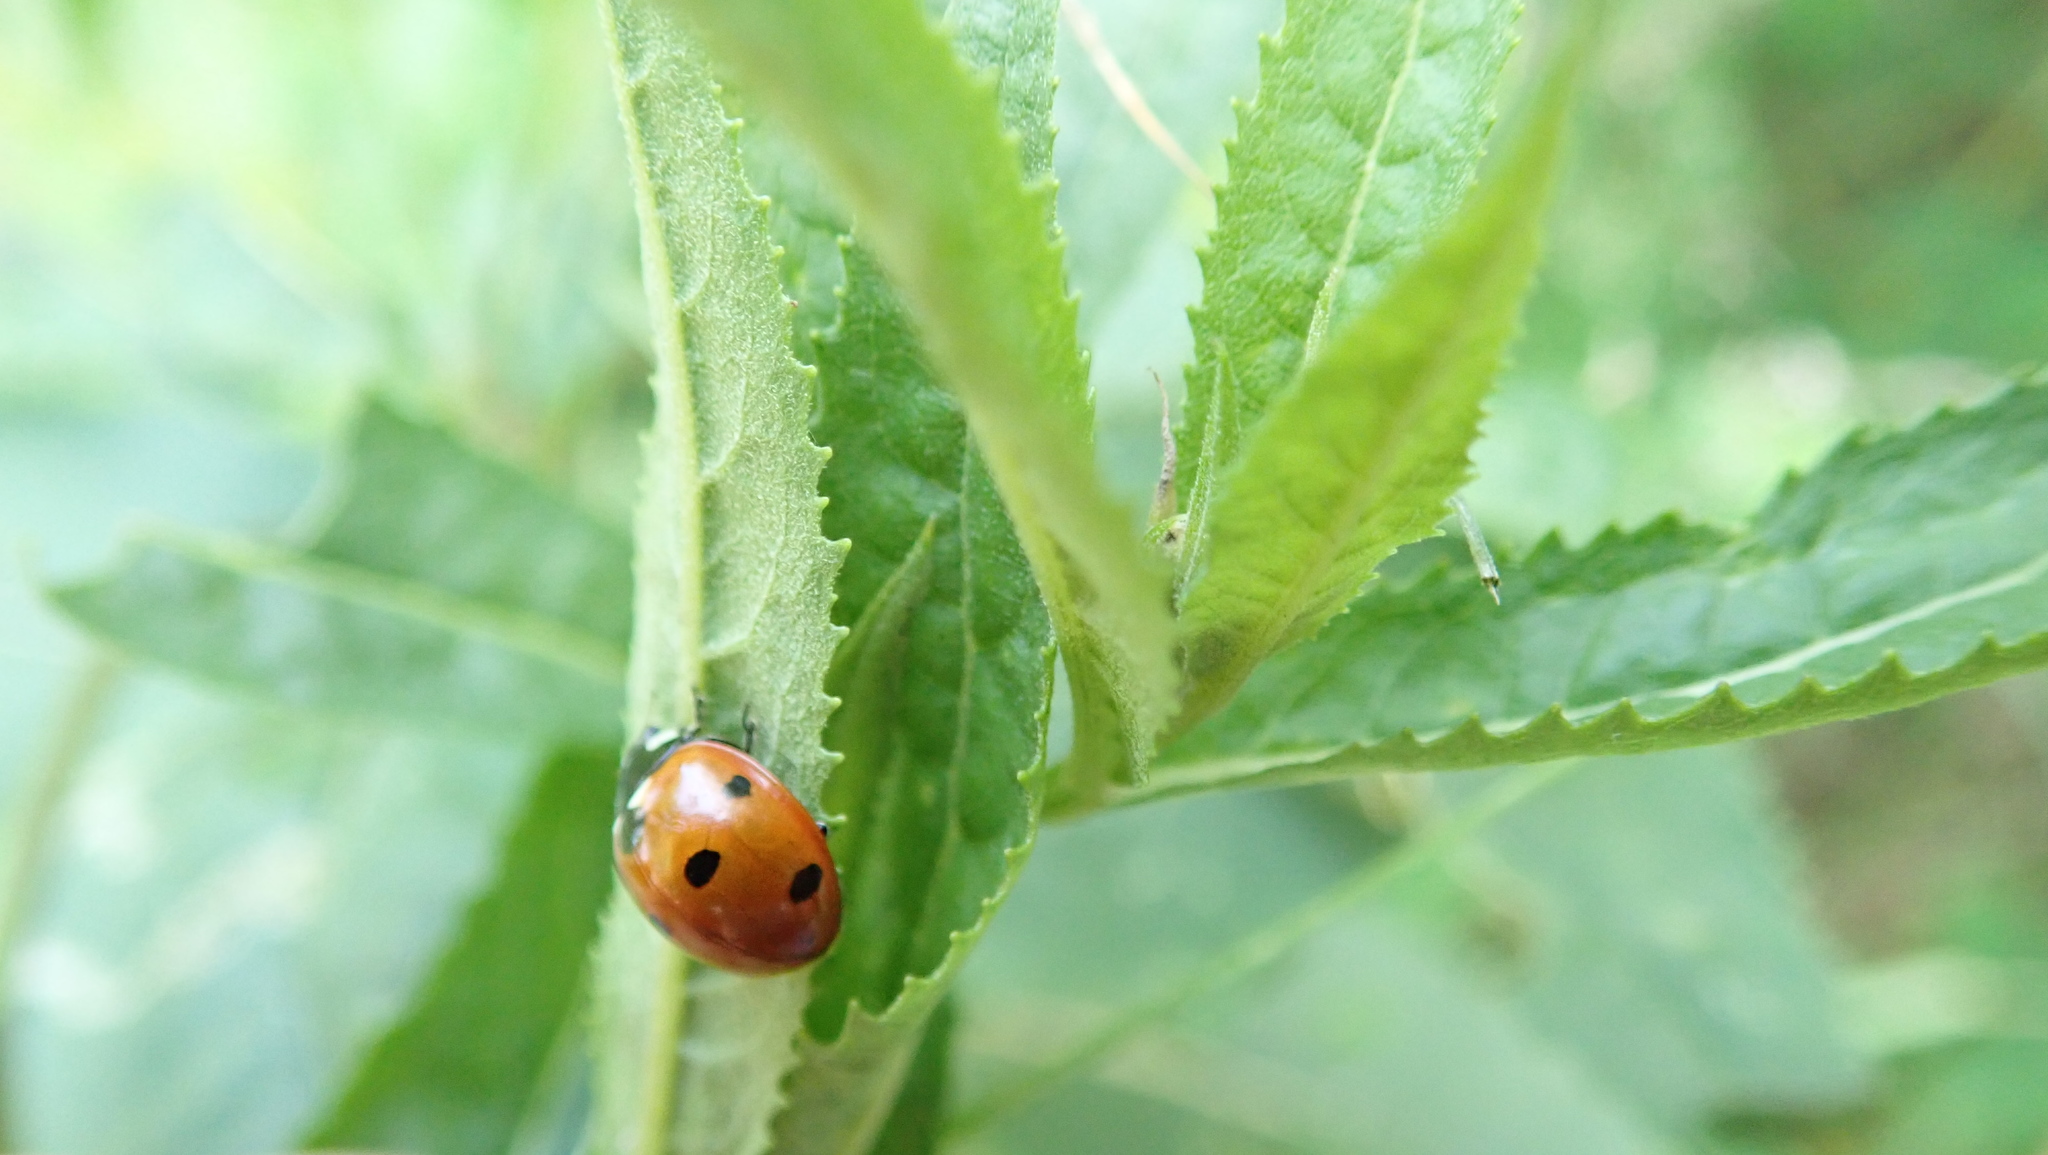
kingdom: Animalia
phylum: Arthropoda
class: Insecta
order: Coleoptera
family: Coccinellidae
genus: Coccinella
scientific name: Coccinella septempunctata
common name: Sevenspotted lady beetle
